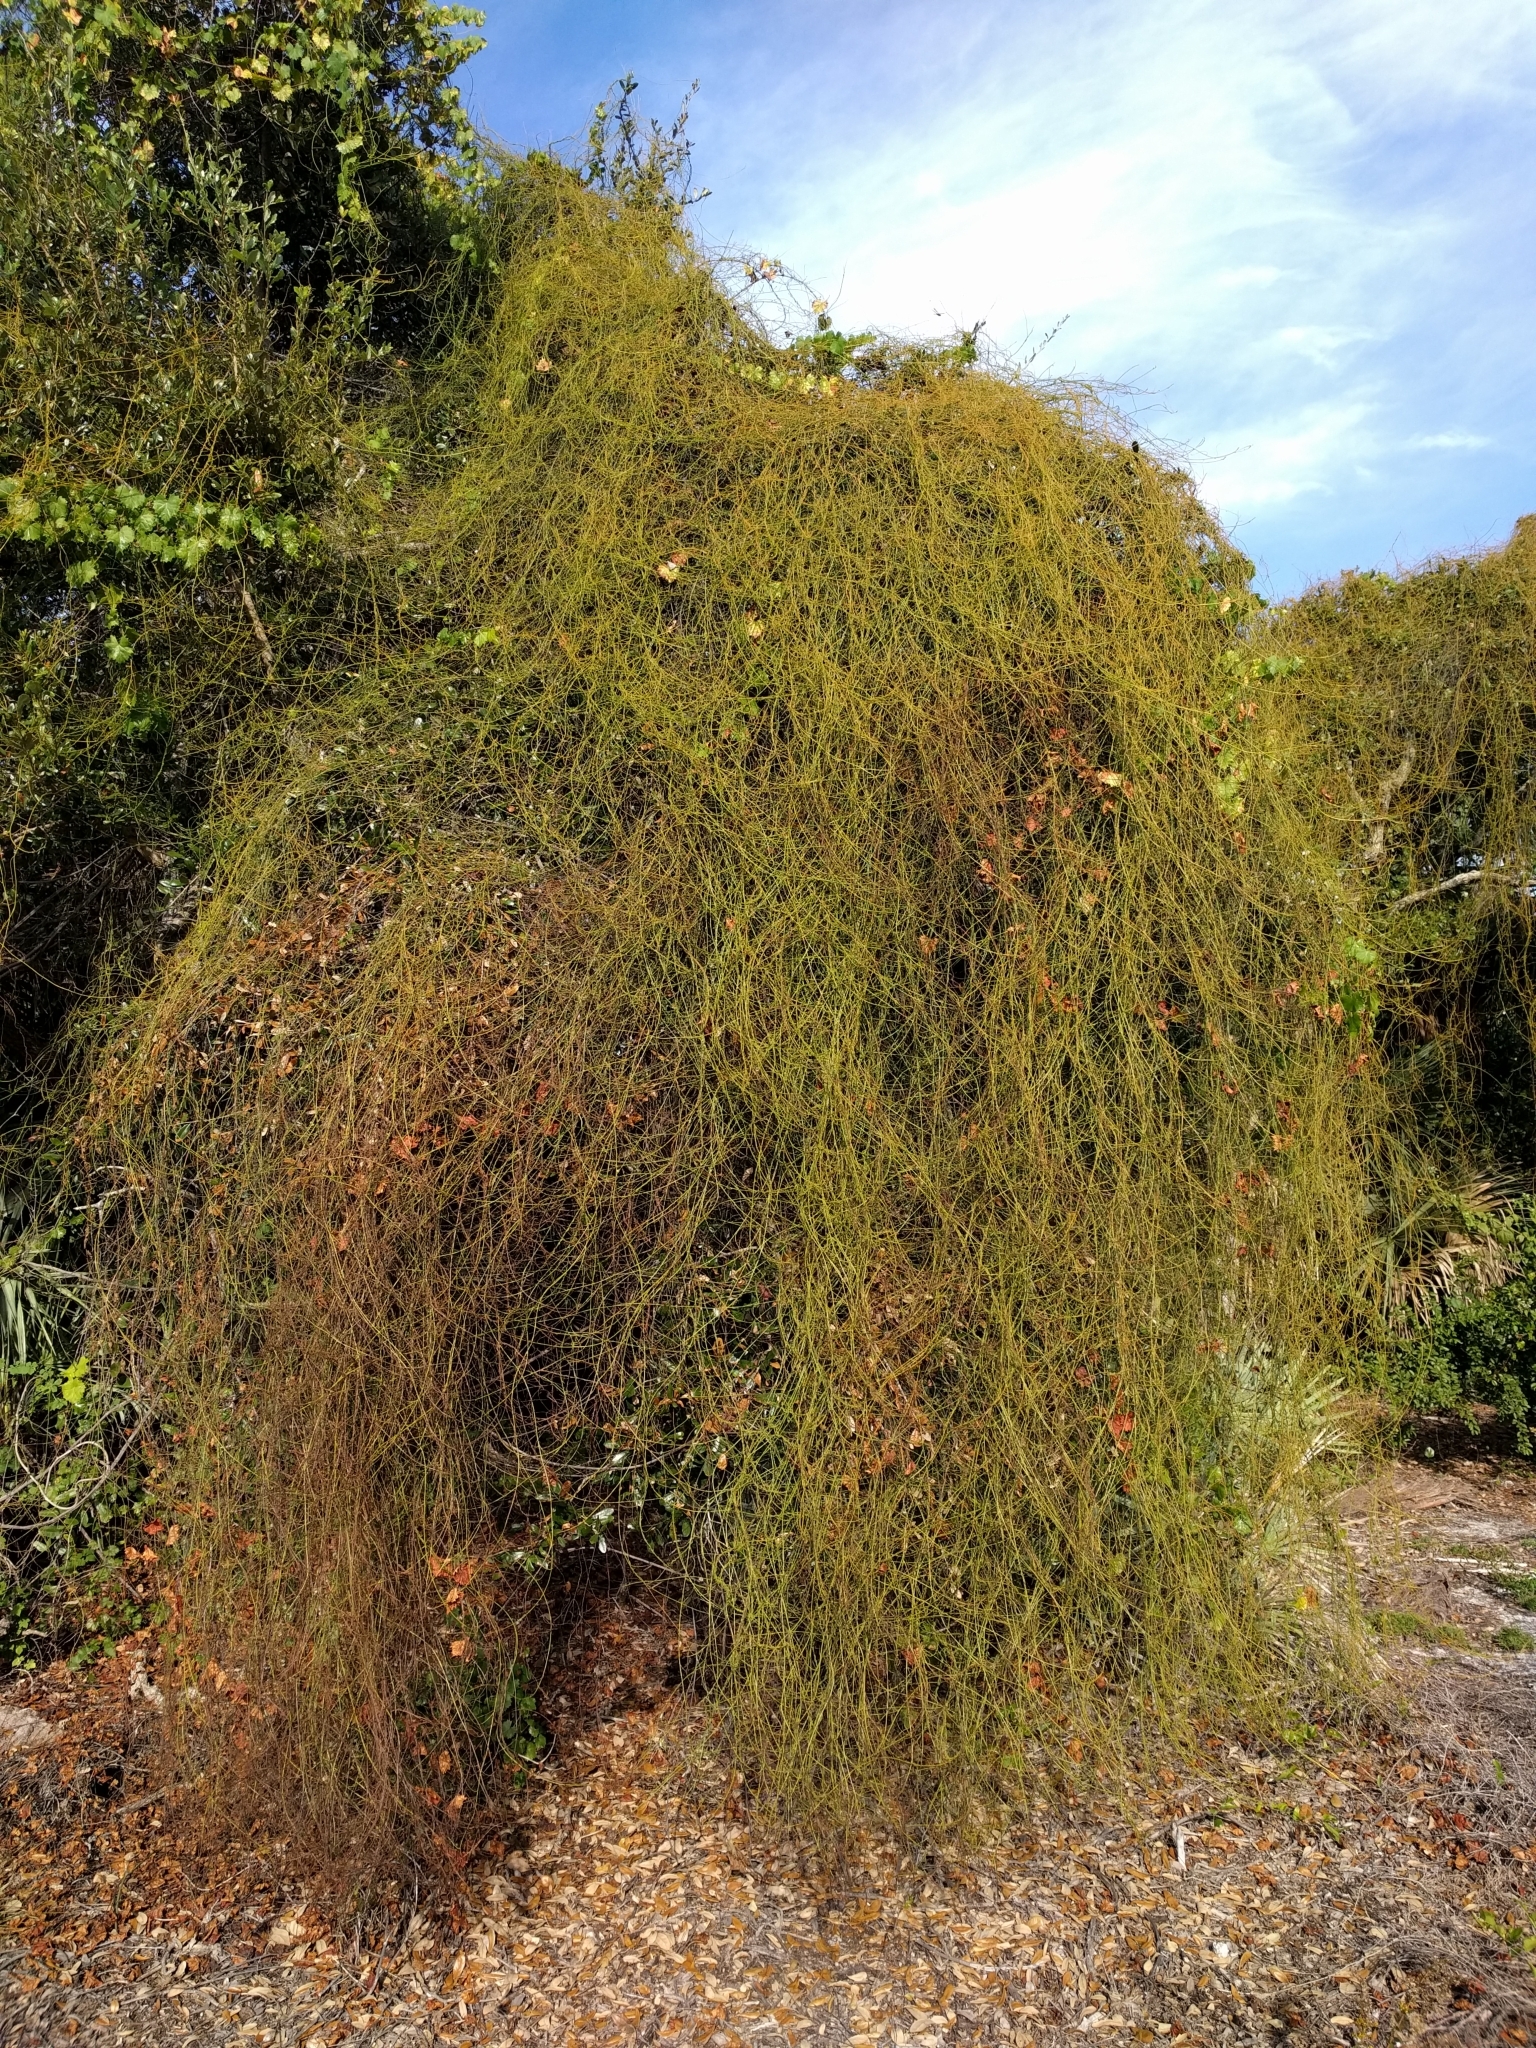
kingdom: Plantae
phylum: Tracheophyta
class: Magnoliopsida
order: Laurales
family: Lauraceae
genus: Cassytha
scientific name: Cassytha filiformis
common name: Dodder-laurel
